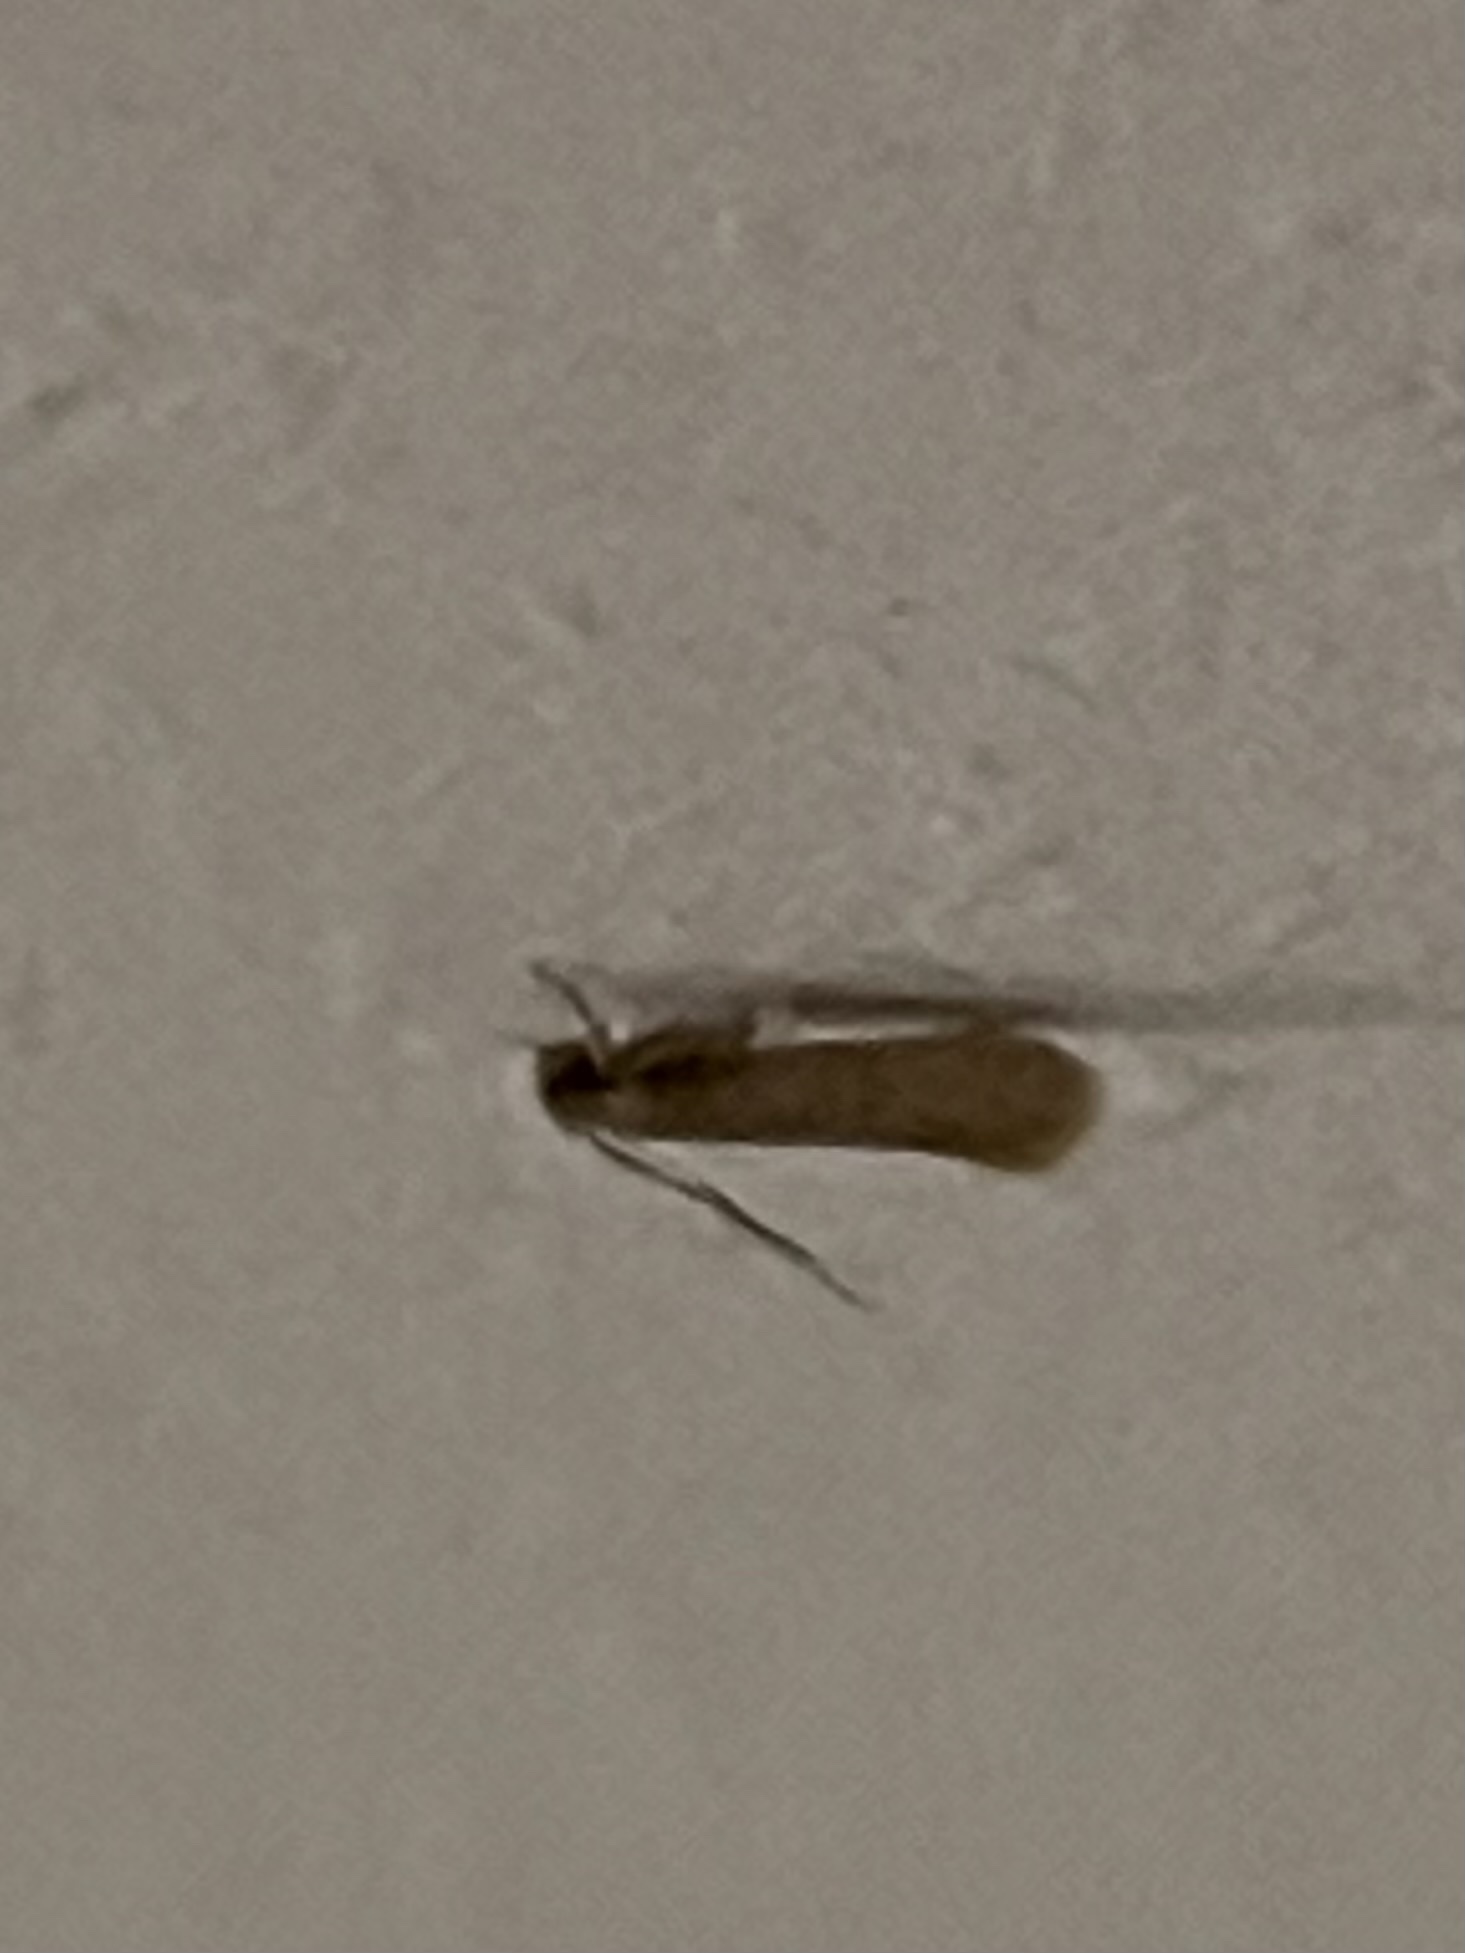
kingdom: Animalia
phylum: Arthropoda
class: Insecta
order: Lepidoptera
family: Tineidae
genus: Tineola
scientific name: Tineola bisselliella
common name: Webbing clothes moth
